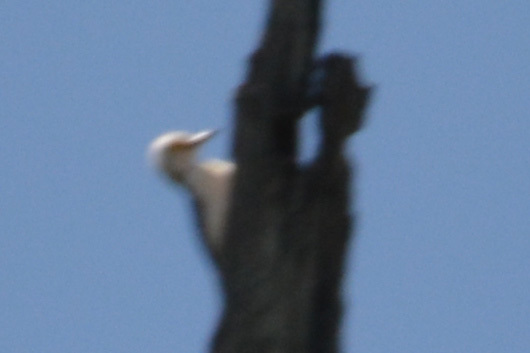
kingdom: Animalia
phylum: Chordata
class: Aves
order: Piciformes
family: Picidae
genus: Melanerpes
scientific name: Melanerpes candidus
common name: White woodpecker
